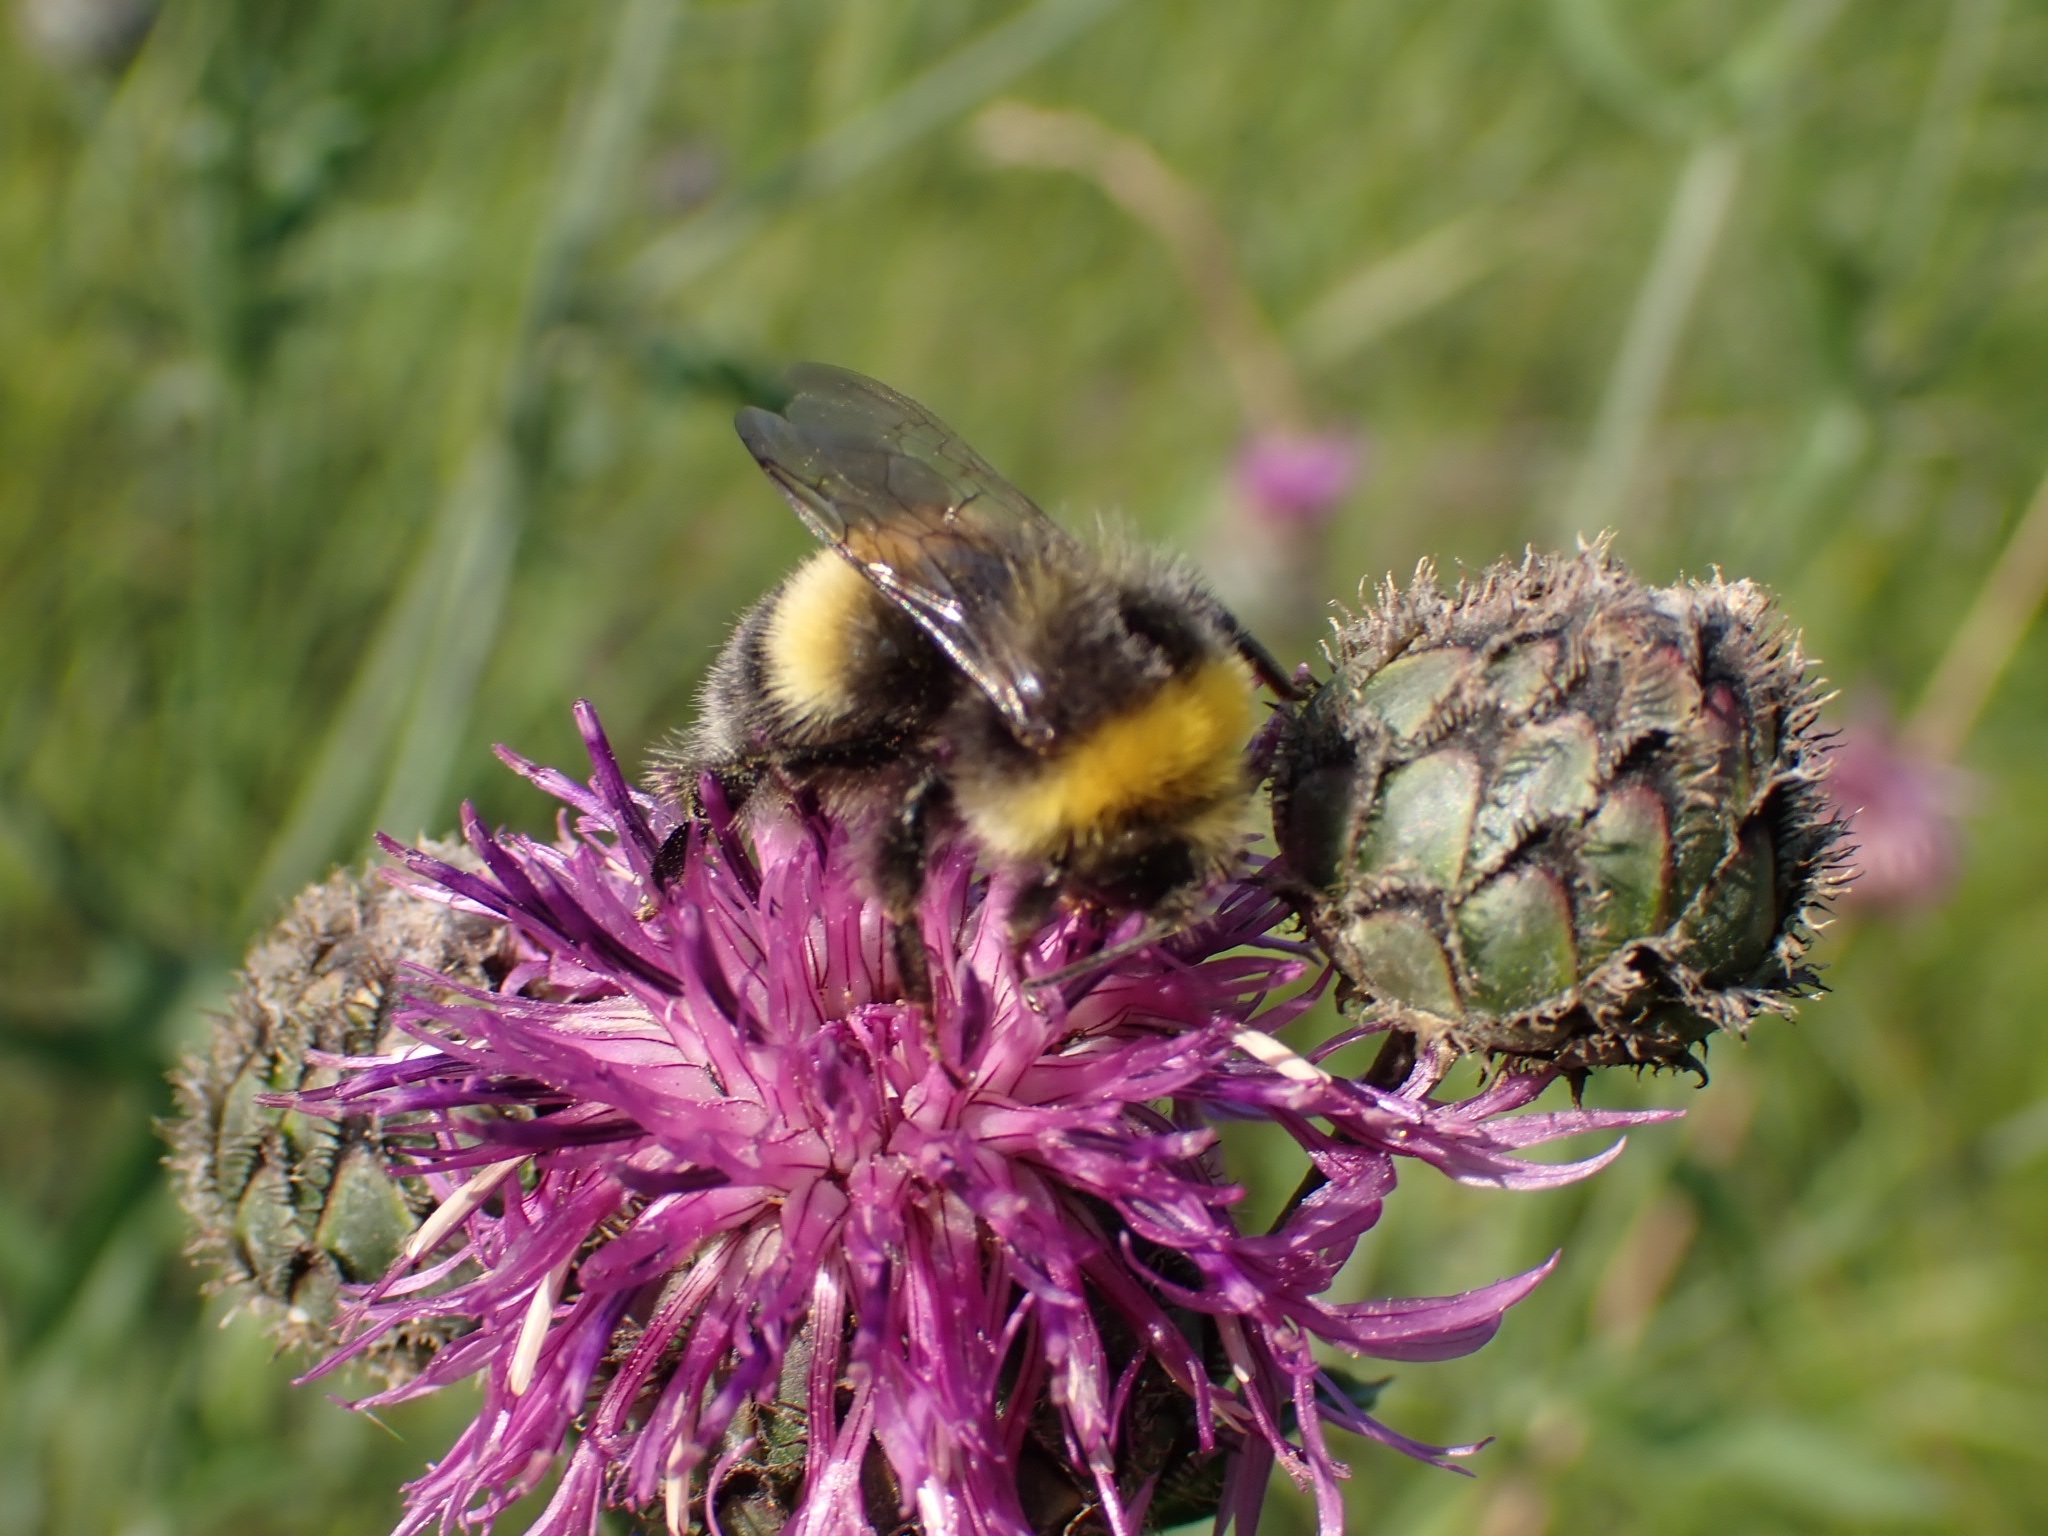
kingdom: Animalia
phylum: Arthropoda
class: Insecta
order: Hymenoptera
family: Apidae
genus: Bombus
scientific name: Bombus lucorum
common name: White-tailed bumblebee
